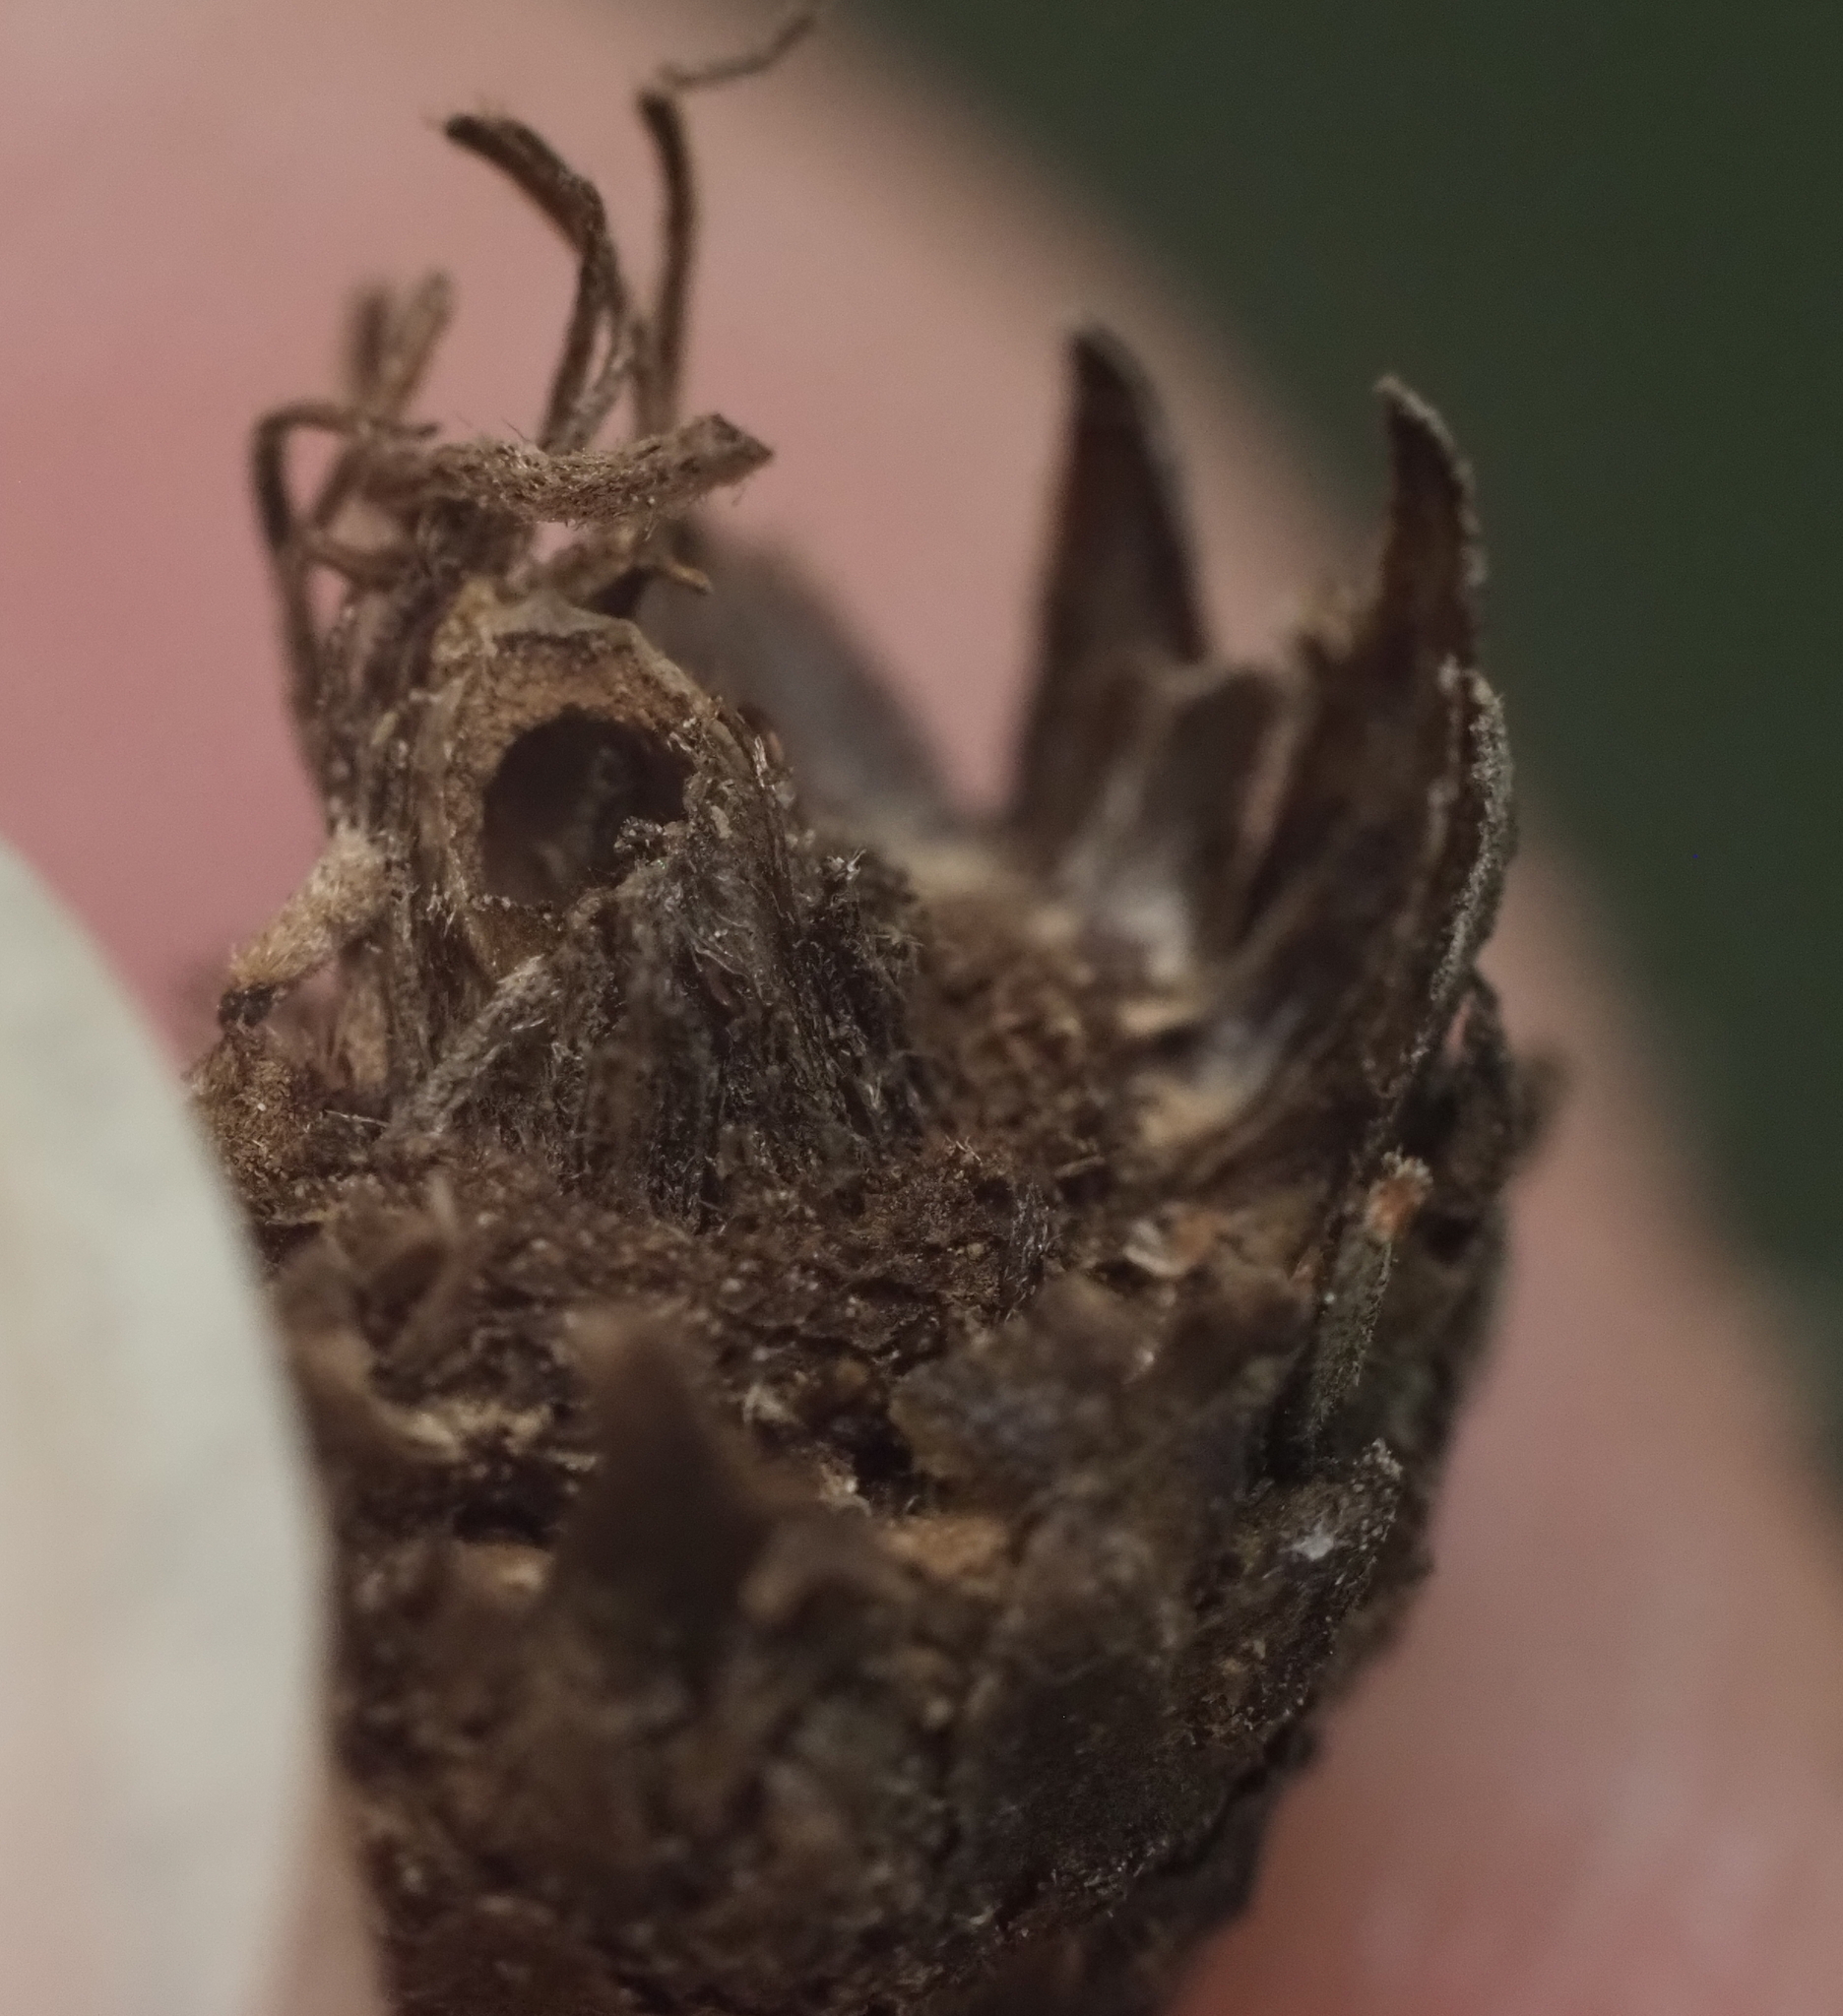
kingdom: Animalia
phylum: Arthropoda
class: Insecta
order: Hymenoptera
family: Cynipidae
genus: Andricus
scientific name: Andricus quercusfoliatus
